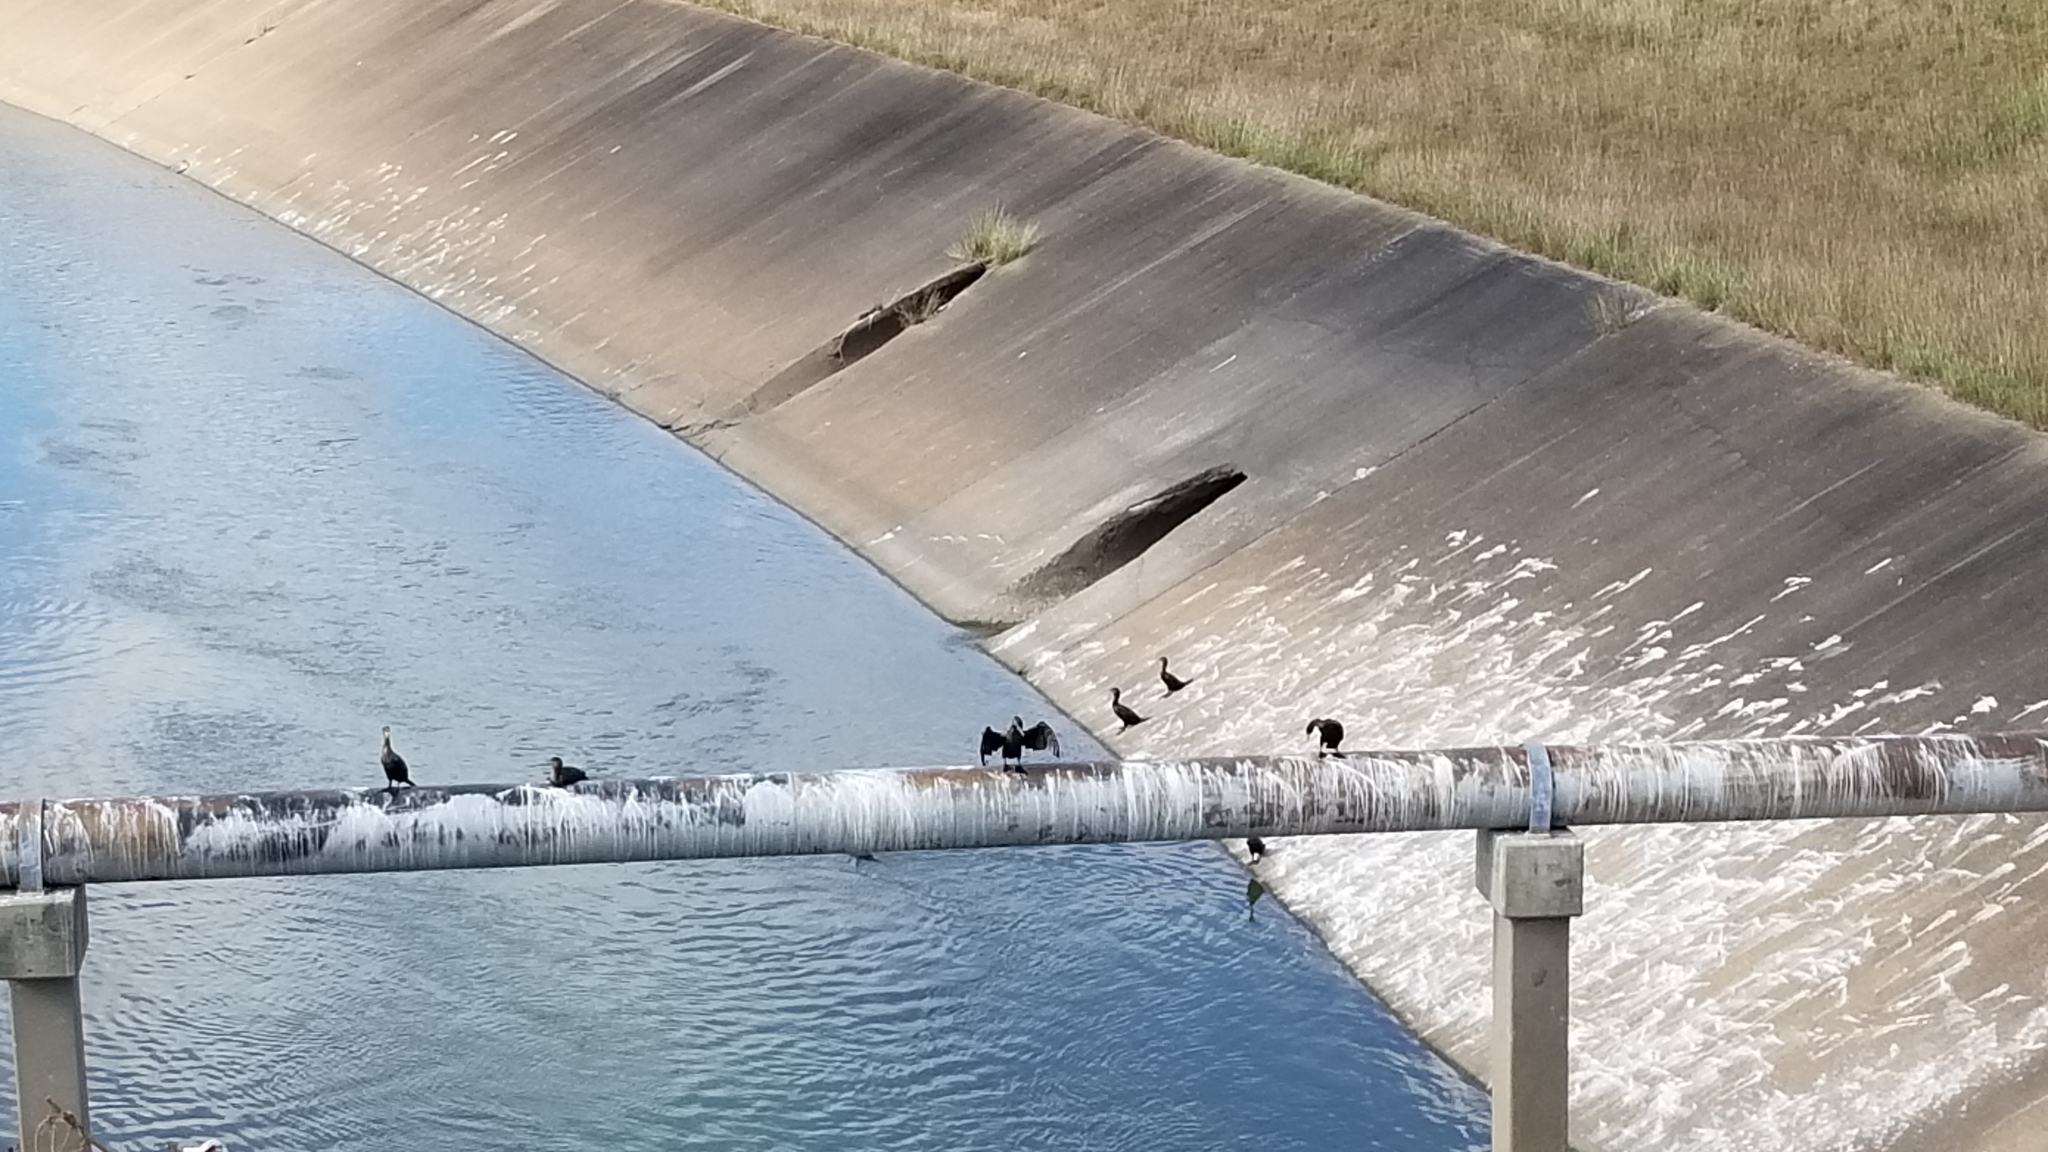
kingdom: Animalia
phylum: Chordata
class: Aves
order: Suliformes
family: Phalacrocoracidae
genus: Phalacrocorax
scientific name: Phalacrocorax auritus
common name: Double-crested cormorant
